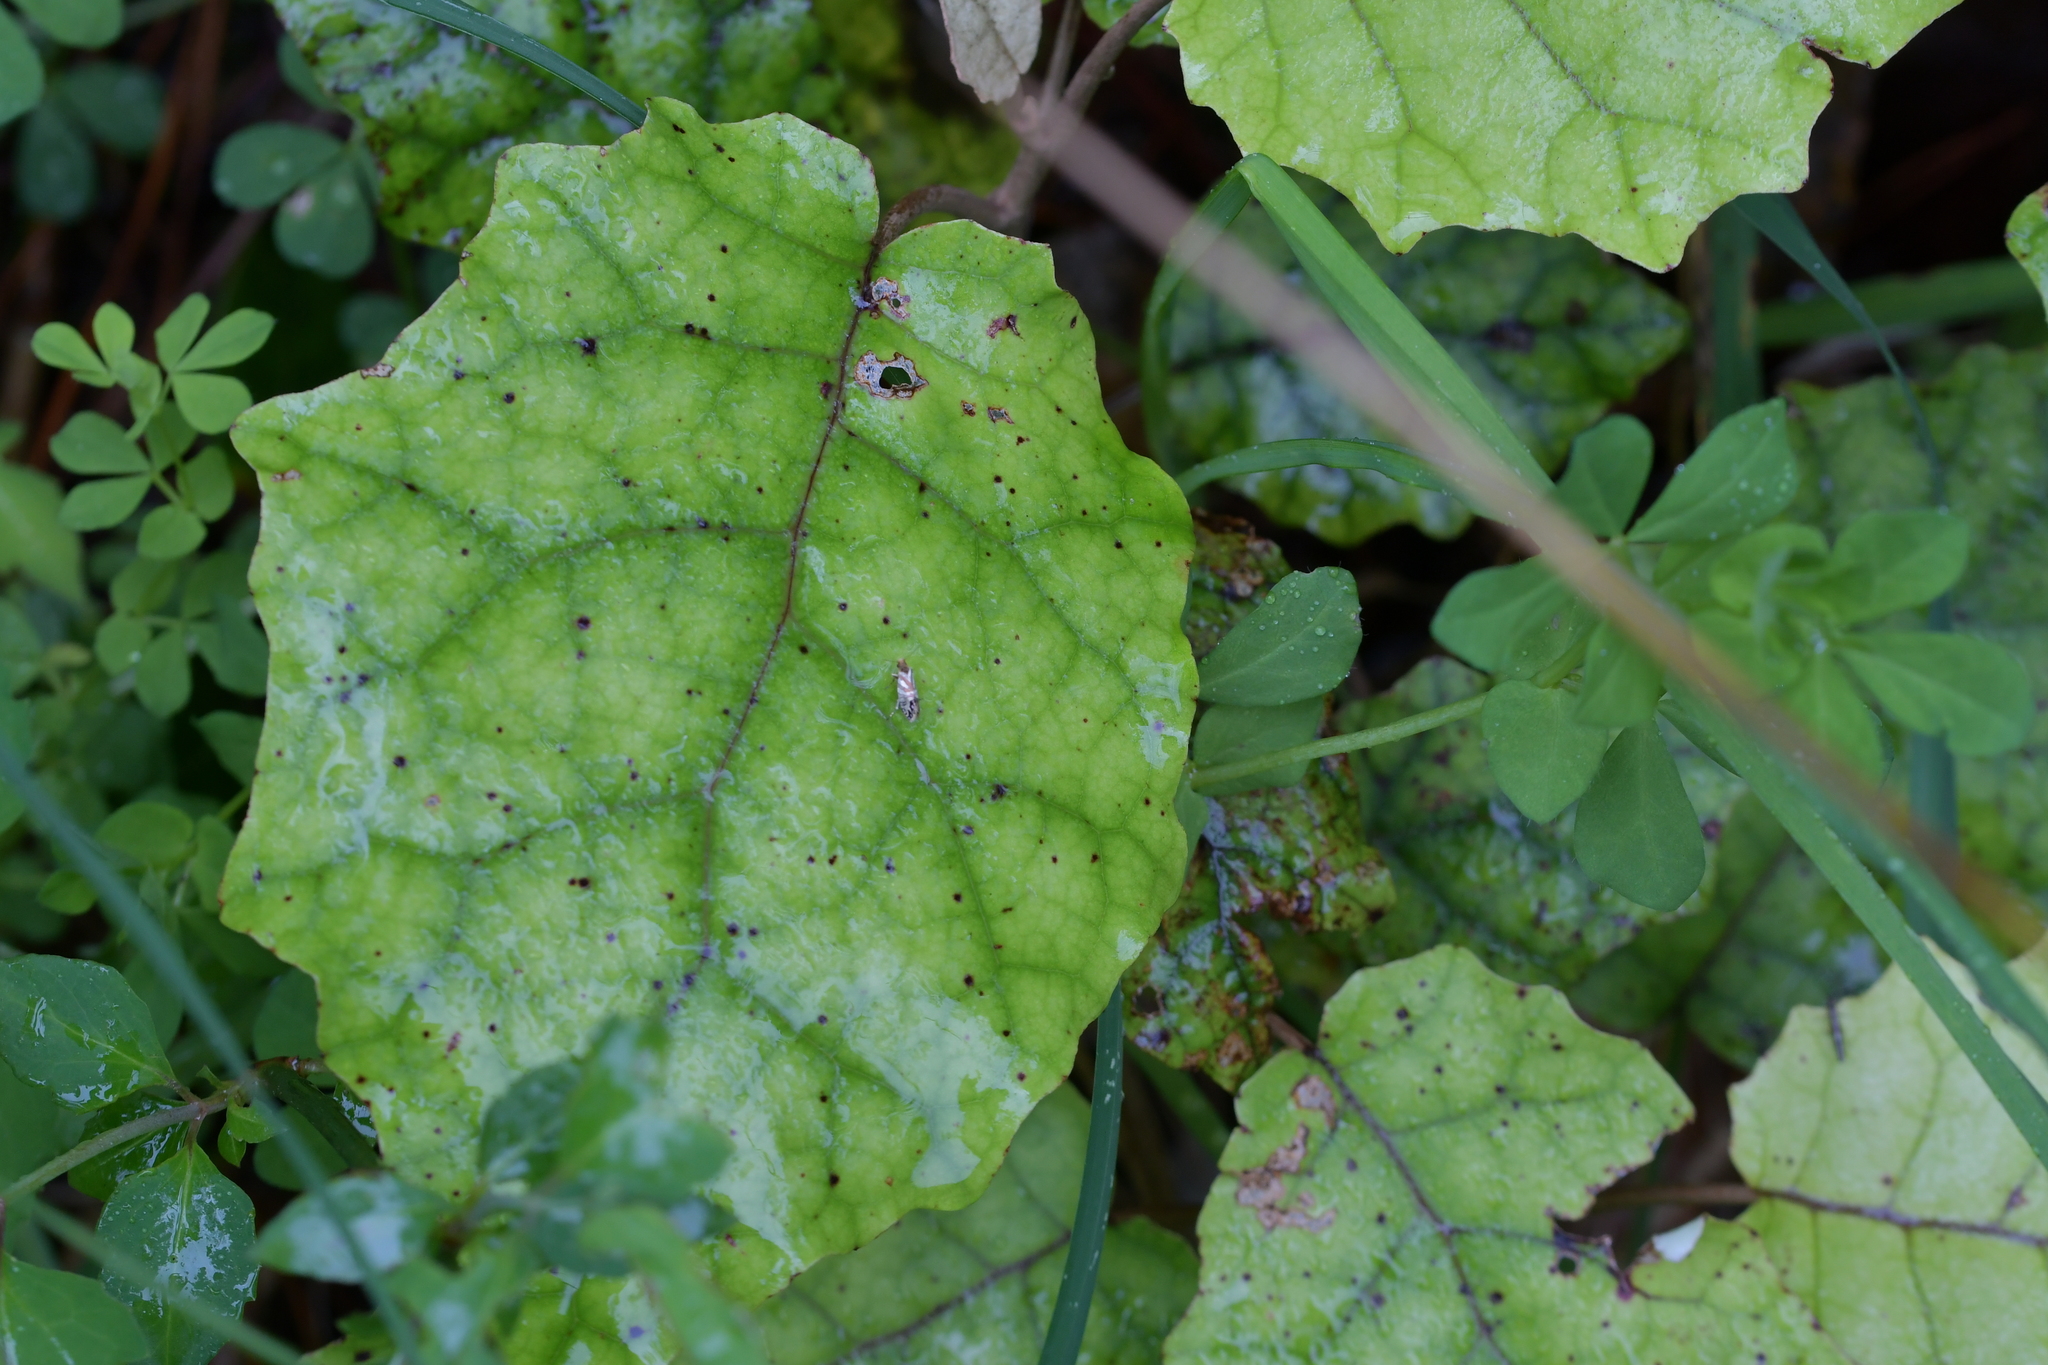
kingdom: Animalia
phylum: Arthropoda
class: Insecta
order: Lepidoptera
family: Micropterigidae
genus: Sabatinca
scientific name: Sabatinca doroxena
